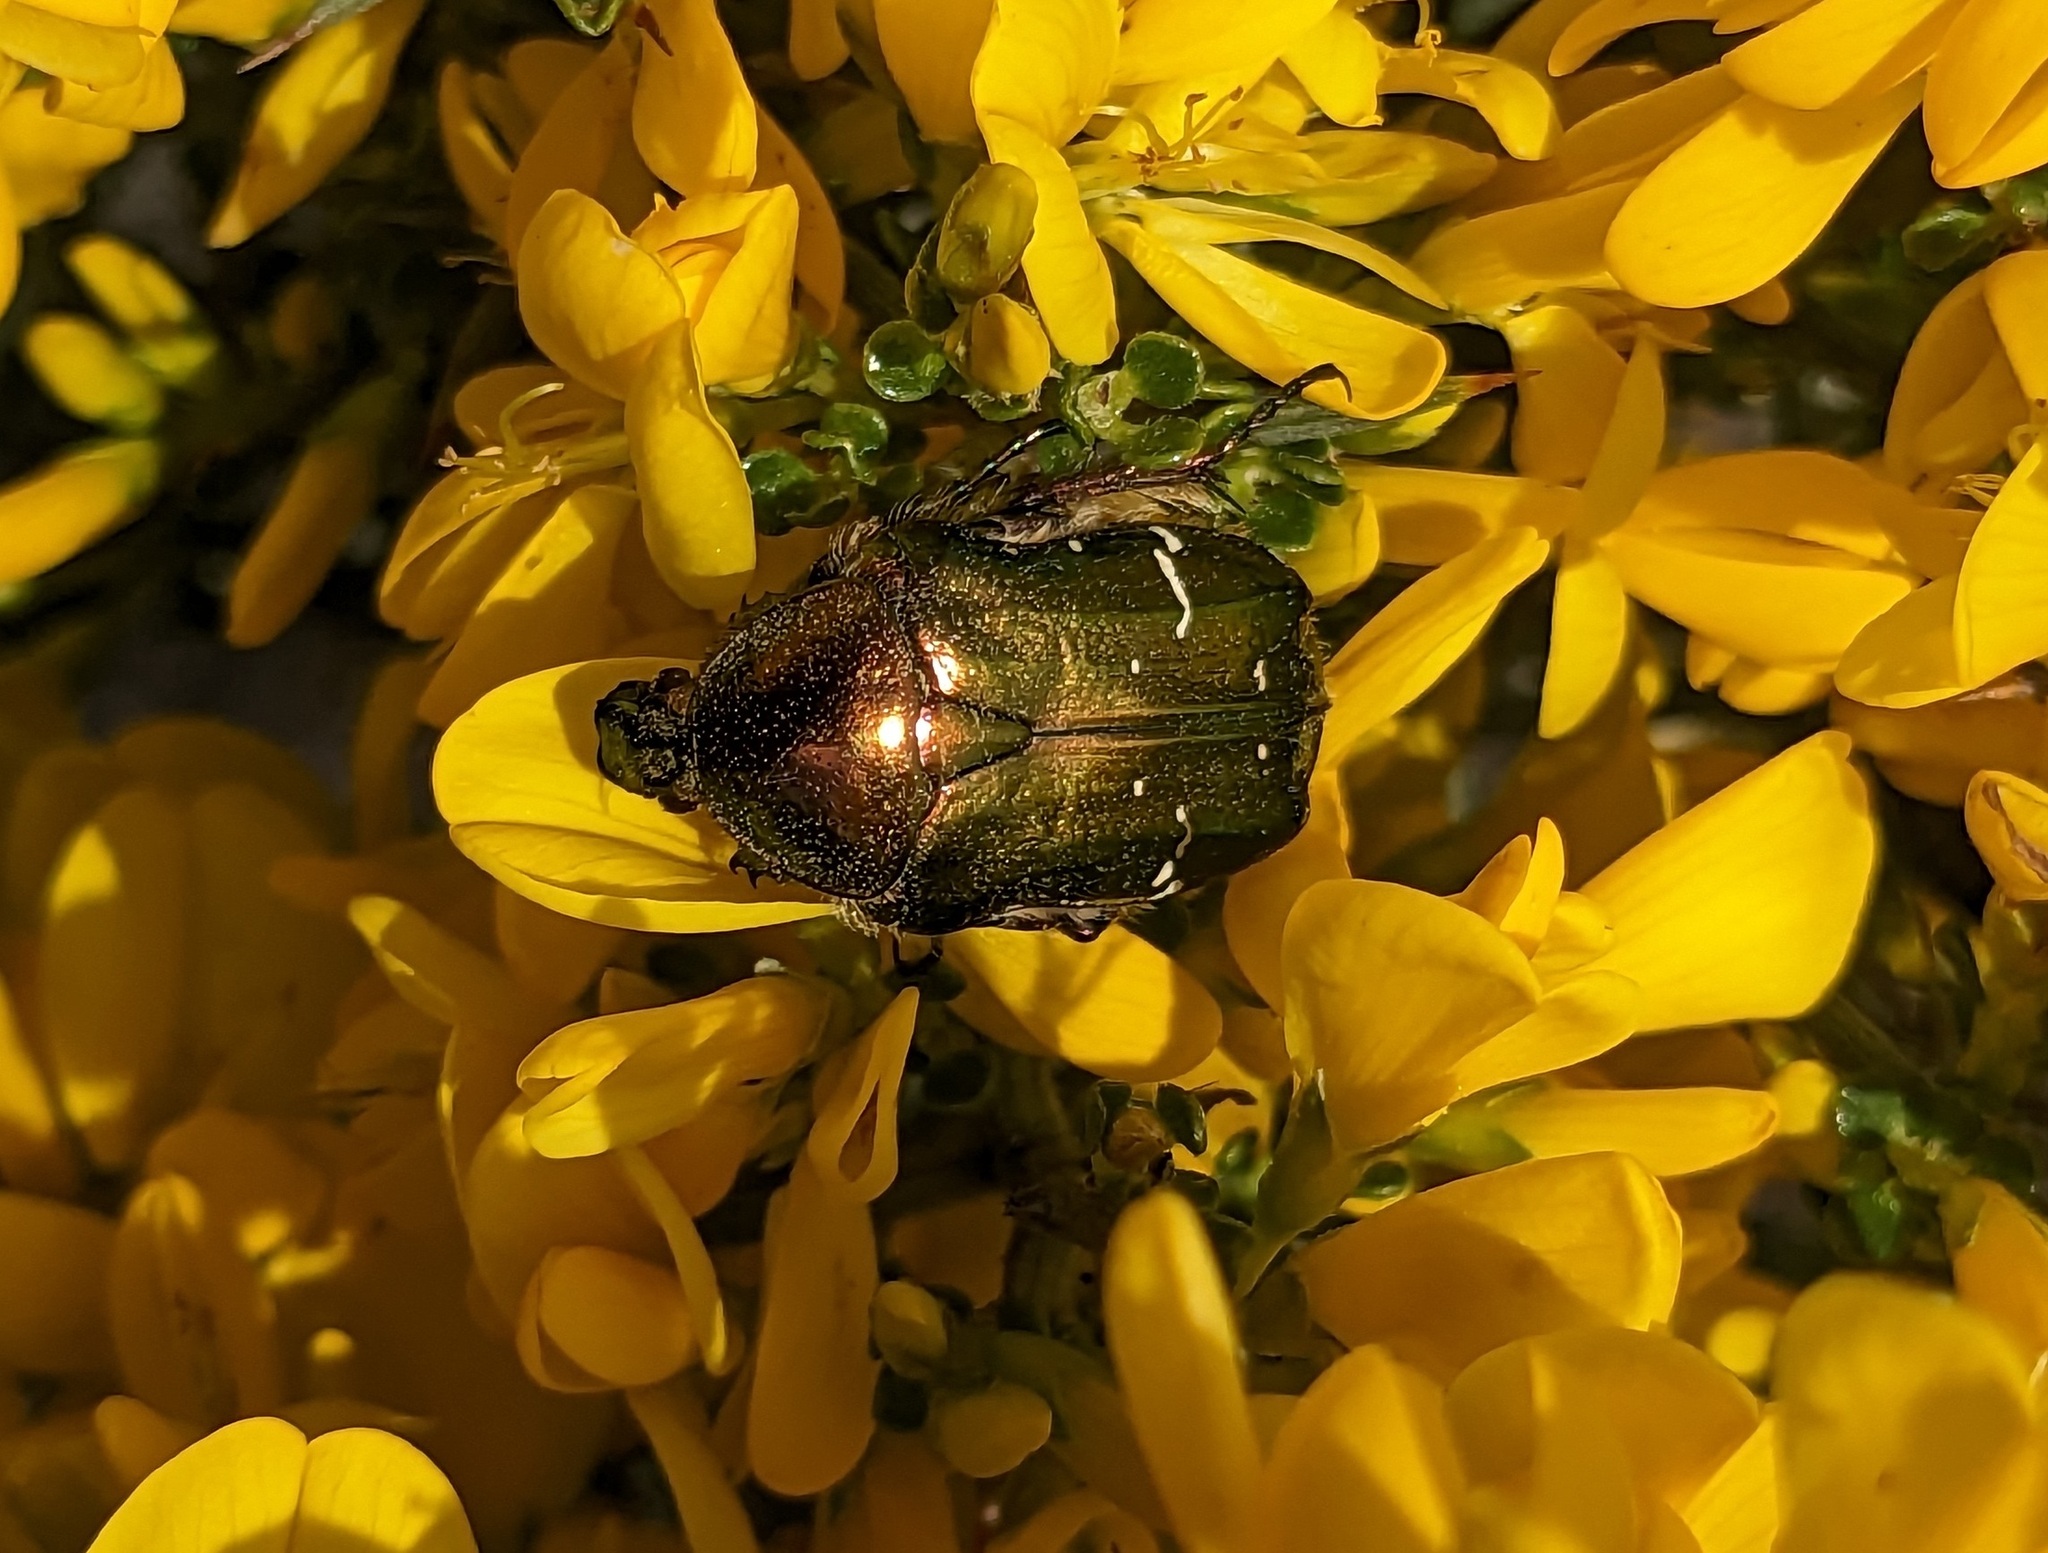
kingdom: Animalia
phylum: Arthropoda
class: Insecta
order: Coleoptera
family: Scarabaeidae
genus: Cetonia
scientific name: Cetonia aurata
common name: Rose chafer
